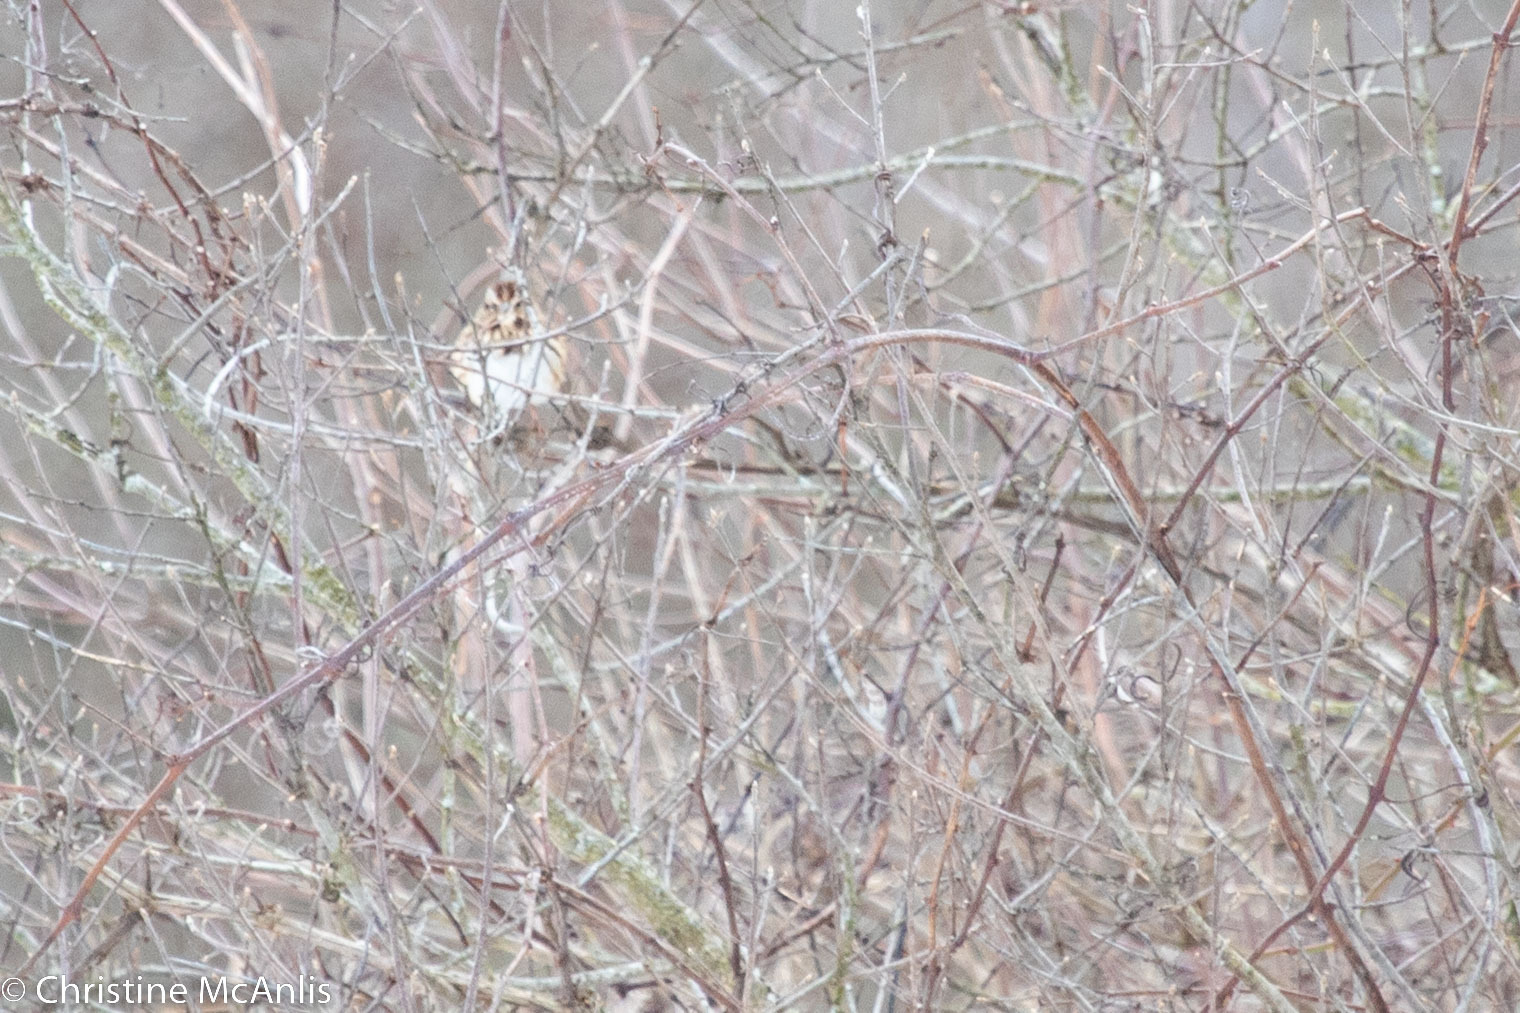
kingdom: Animalia
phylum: Chordata
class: Aves
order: Passeriformes
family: Passerellidae
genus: Melospiza
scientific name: Melospiza melodia
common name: Song sparrow
